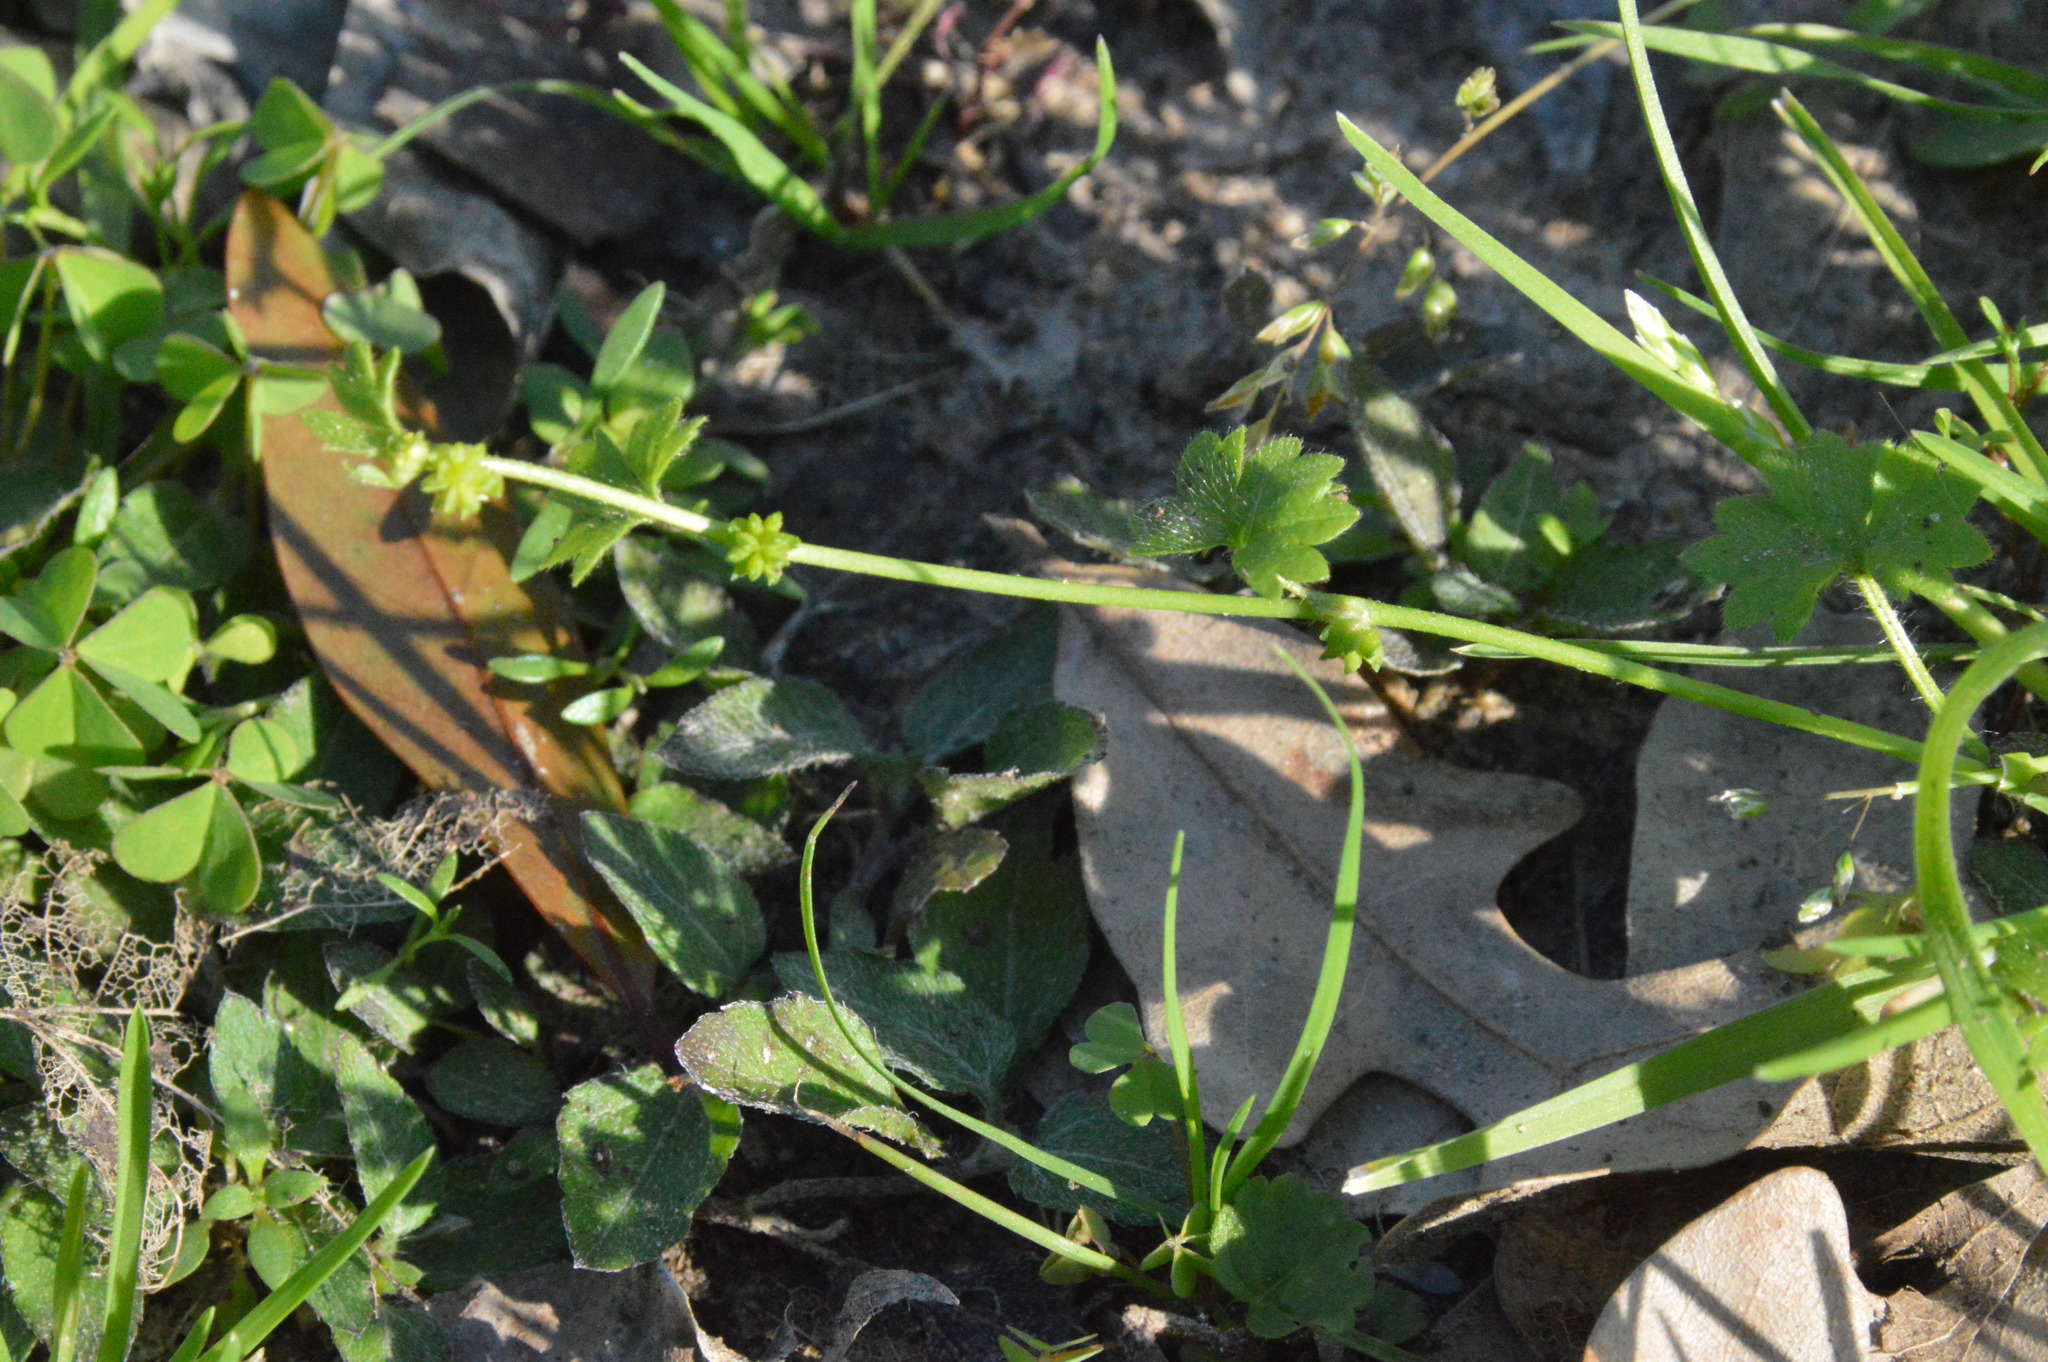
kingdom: Plantae
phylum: Tracheophyta
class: Magnoliopsida
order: Ranunculales
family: Ranunculaceae
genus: Ranunculus
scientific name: Ranunculus platensis
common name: Prairie buttercup
